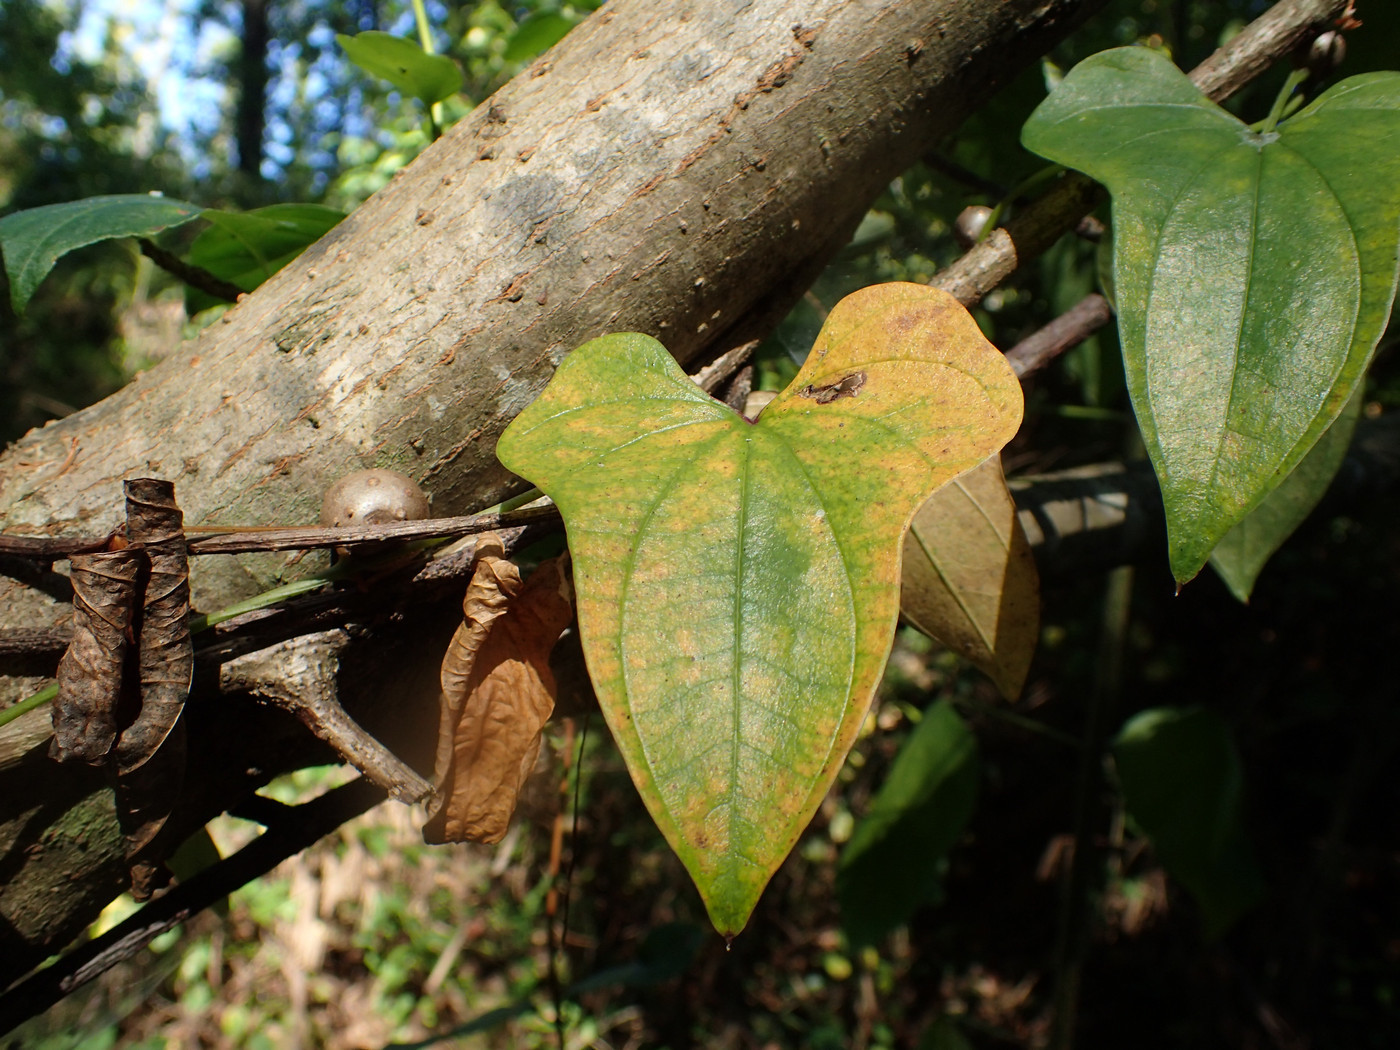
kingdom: Plantae
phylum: Tracheophyta
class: Liliopsida
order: Dioscoreales
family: Dioscoreaceae
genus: Dioscorea
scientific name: Dioscorea polystachya
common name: Chinese yam
